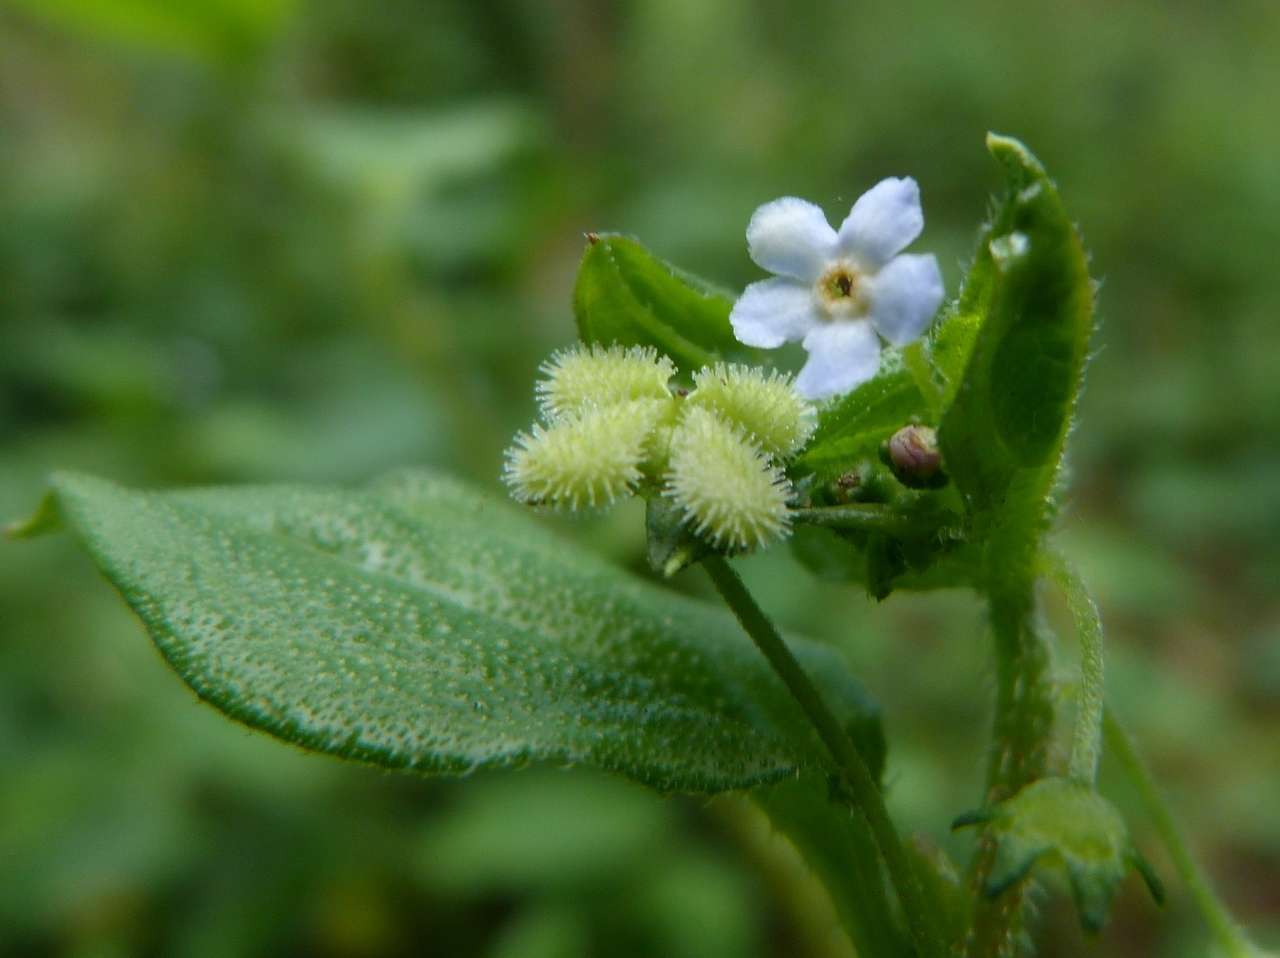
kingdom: Plantae
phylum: Tracheophyta
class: Magnoliopsida
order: Boraginales
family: Boraginaceae
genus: Hackelia
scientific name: Hackelia latifolia
